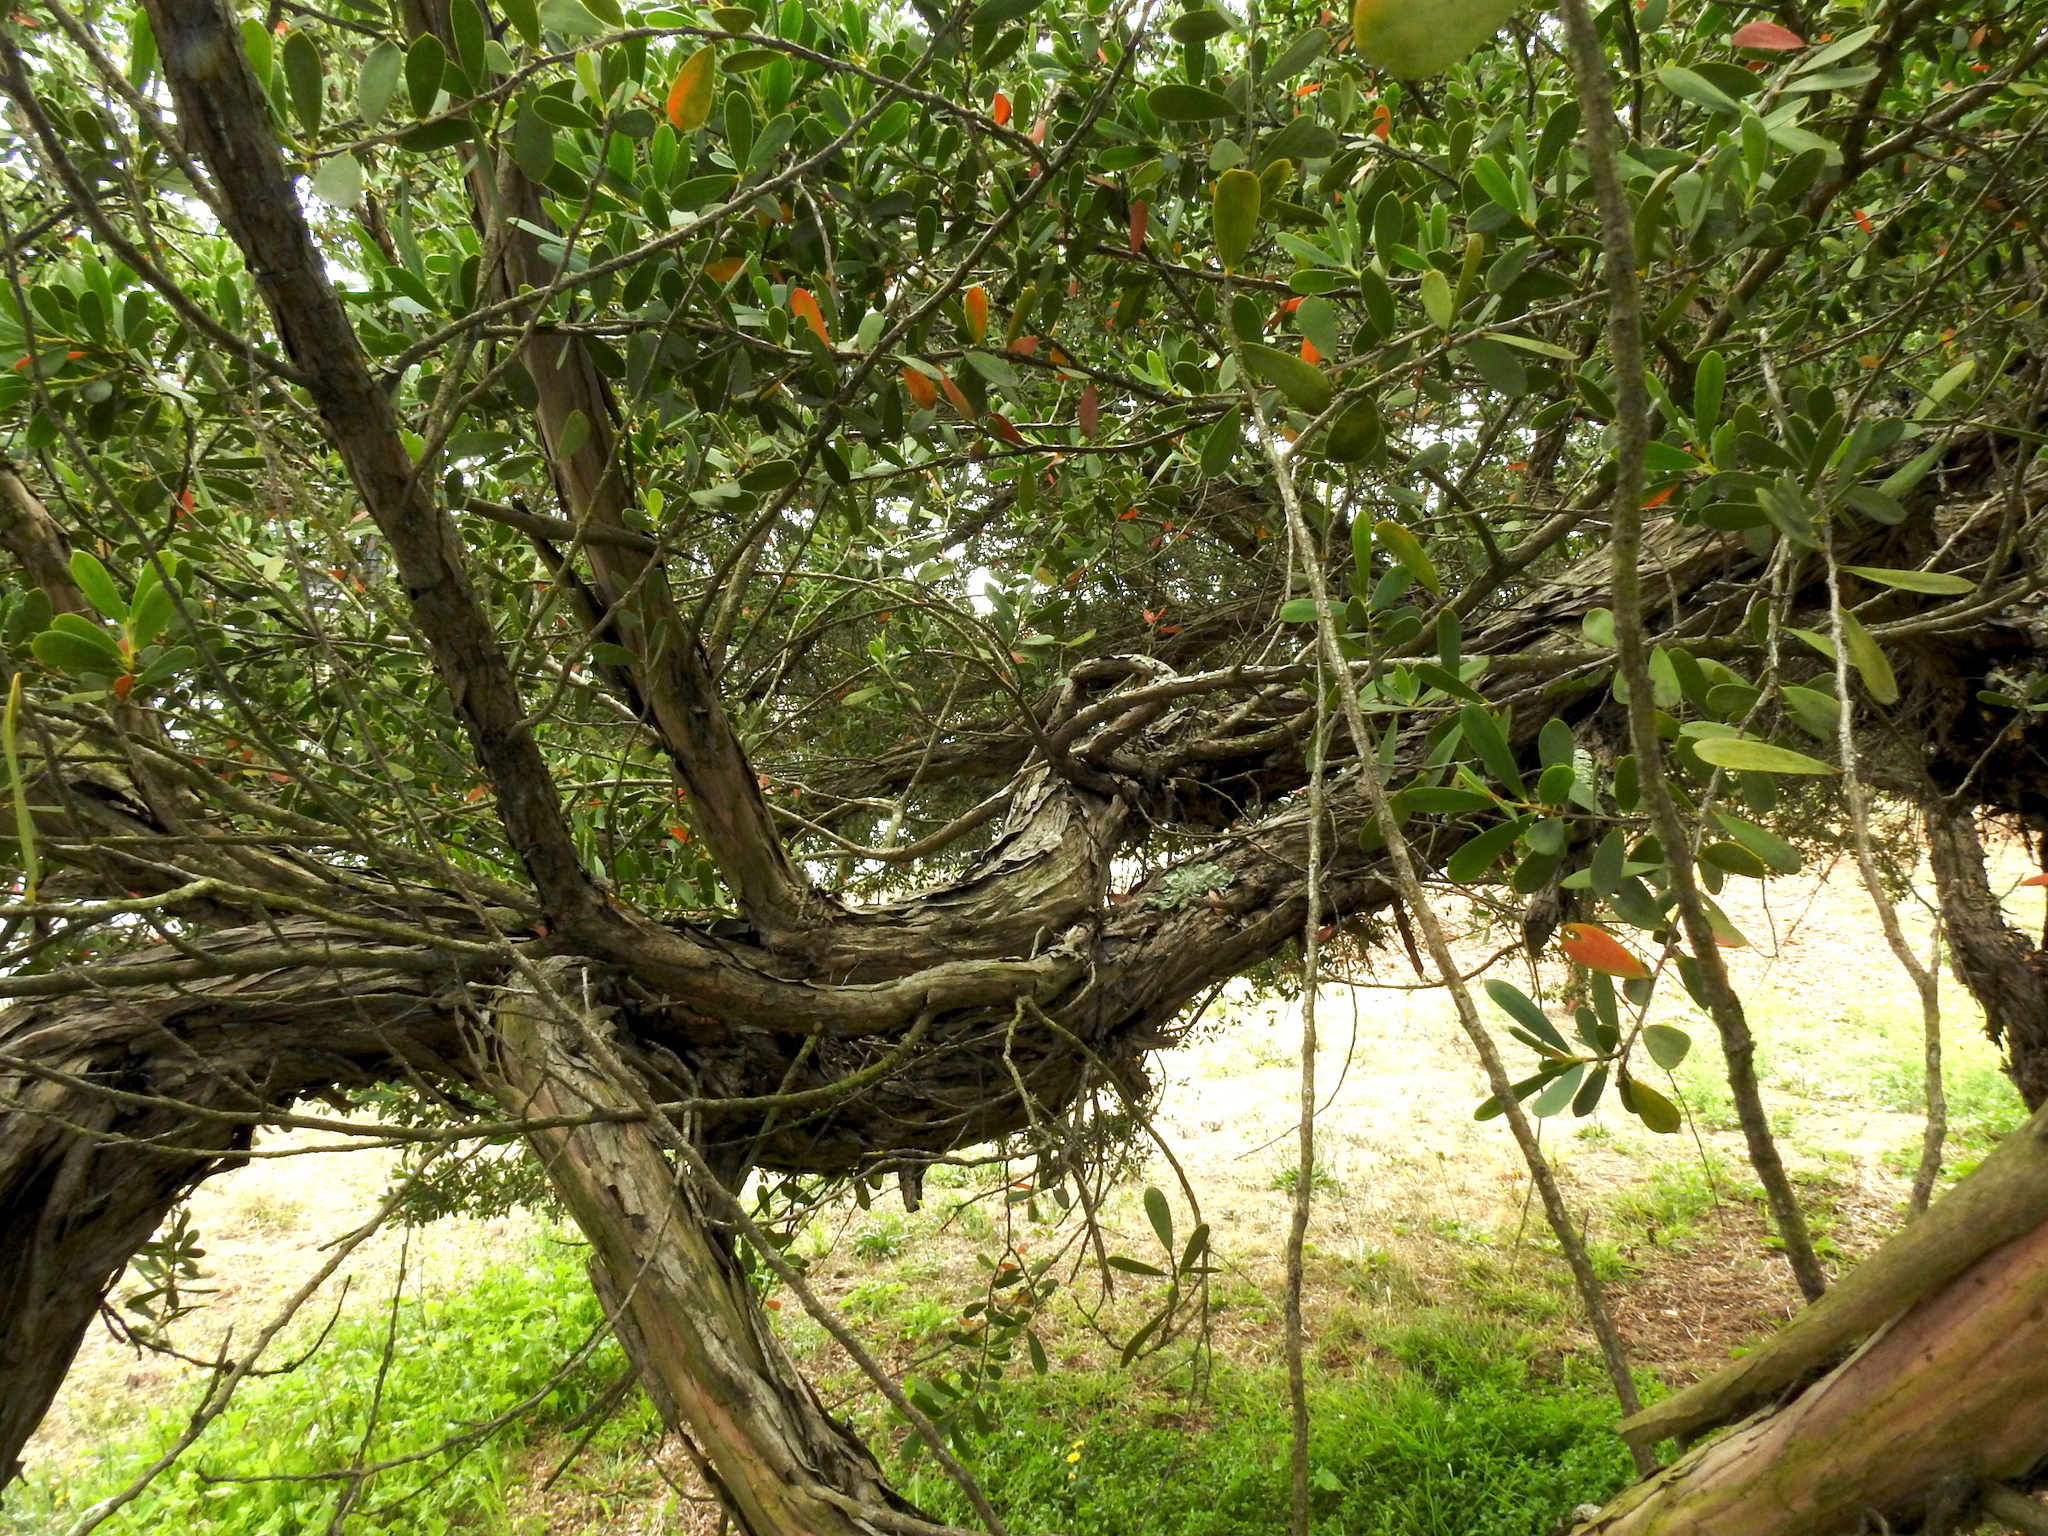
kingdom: Plantae
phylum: Tracheophyta
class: Magnoliopsida
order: Myrtales
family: Myrtaceae
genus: Leptospermum
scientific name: Leptospermum laevigatum
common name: Australian teatree
